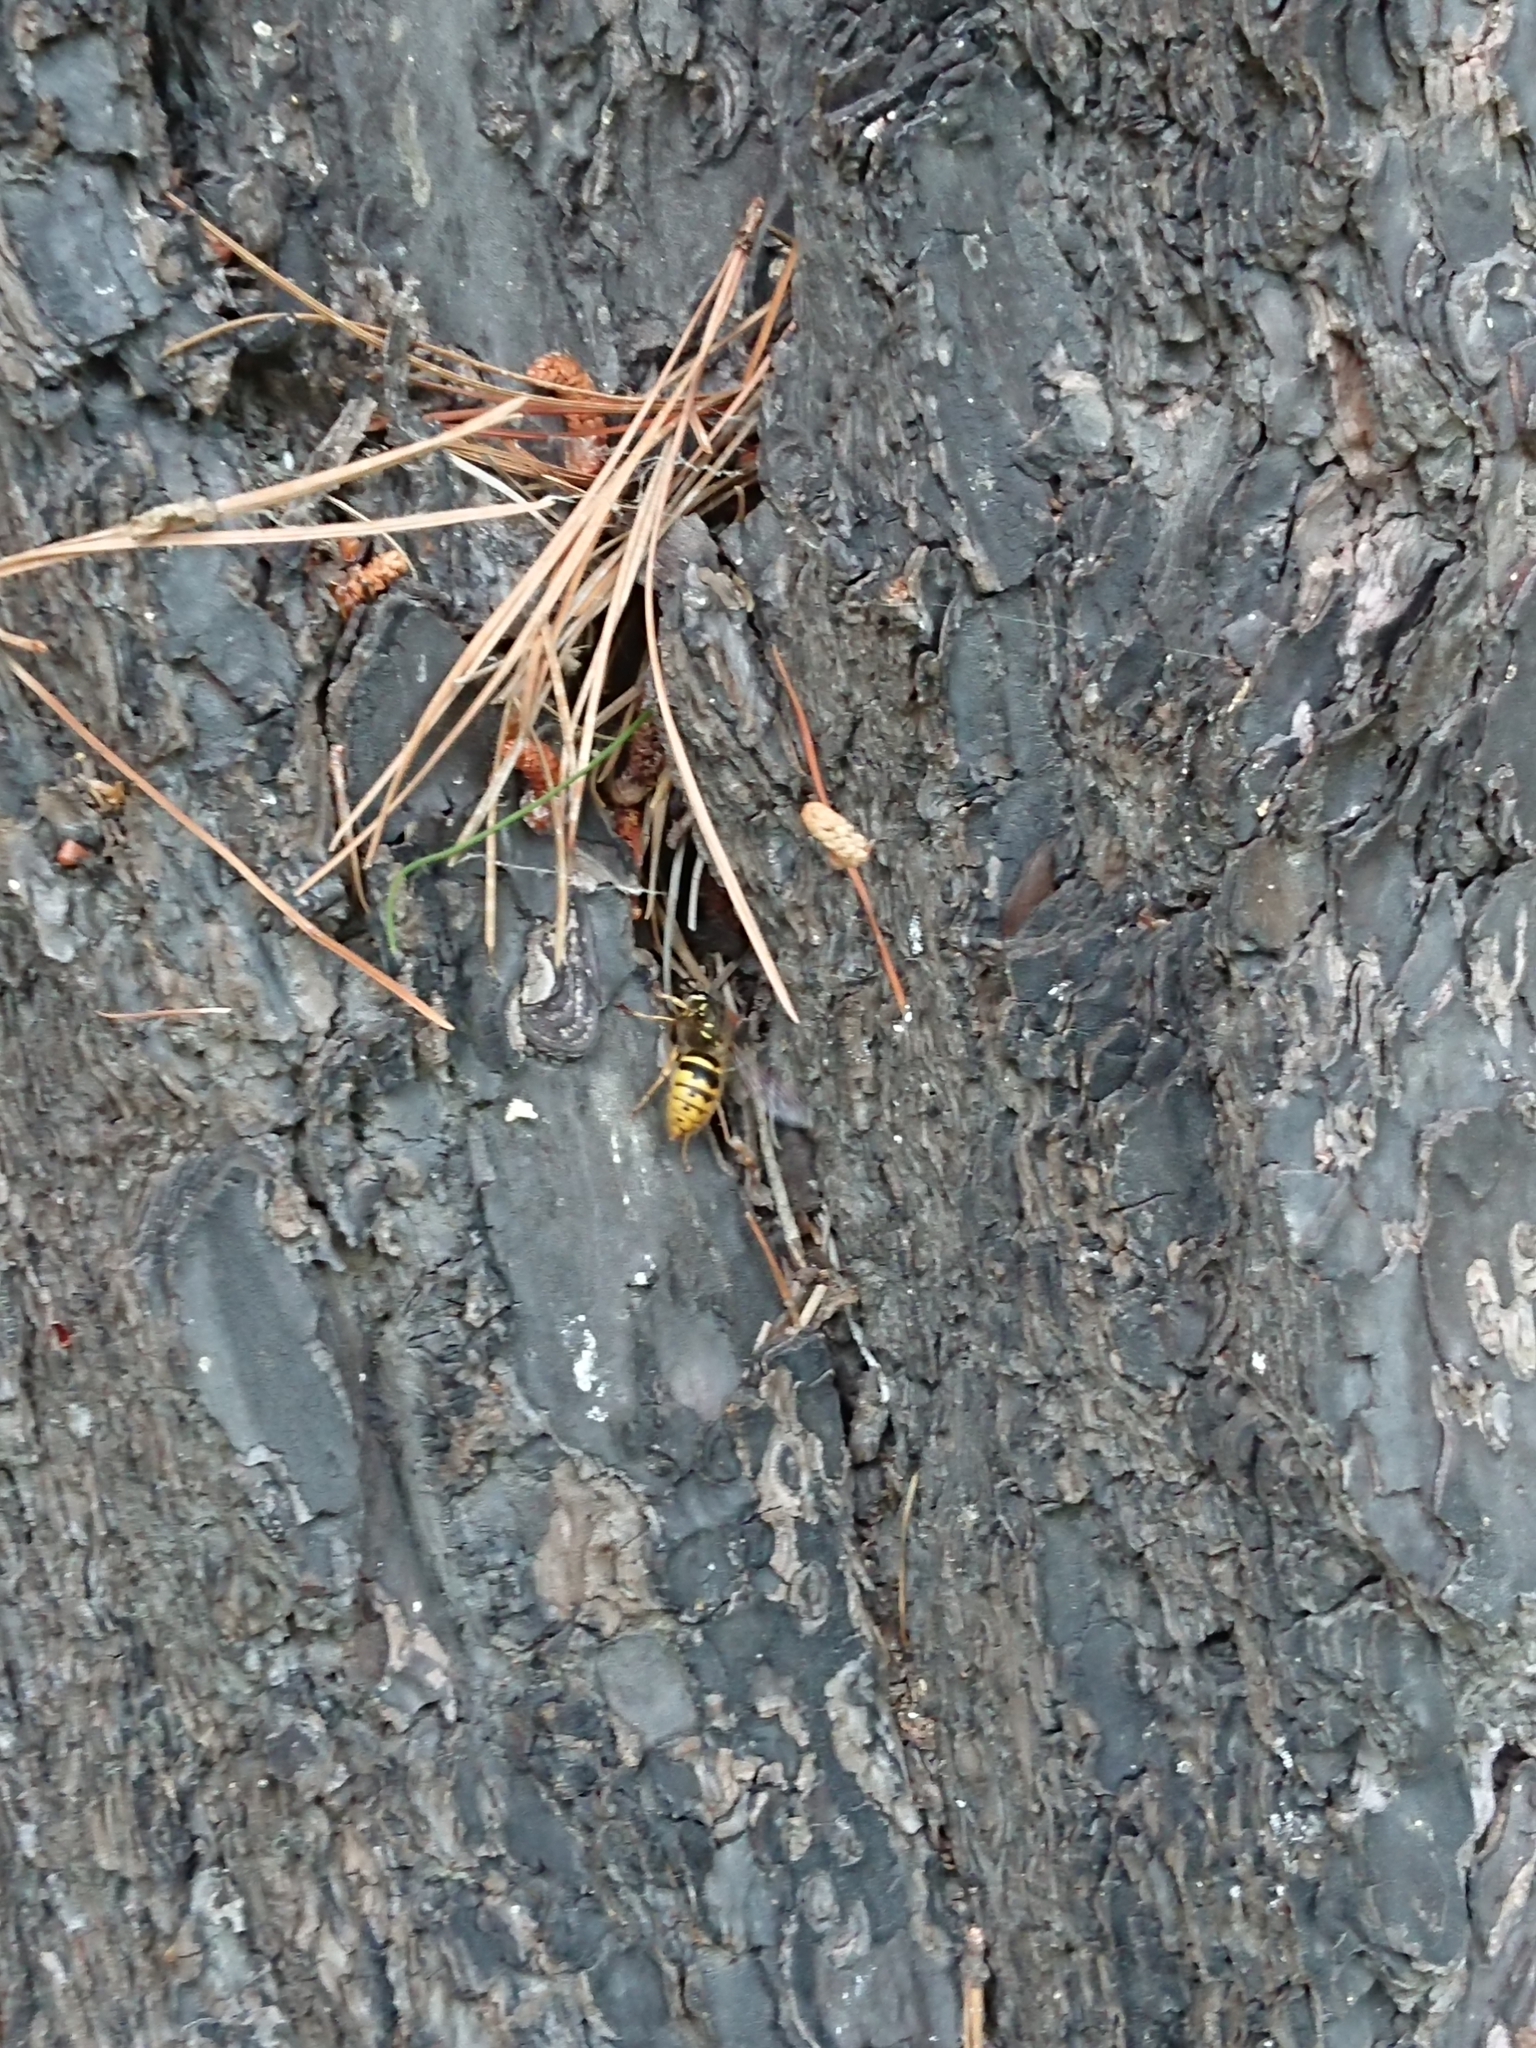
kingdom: Animalia
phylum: Arthropoda
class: Insecta
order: Hymenoptera
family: Vespidae
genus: Vespula
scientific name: Vespula vulgaris
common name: Common wasp
